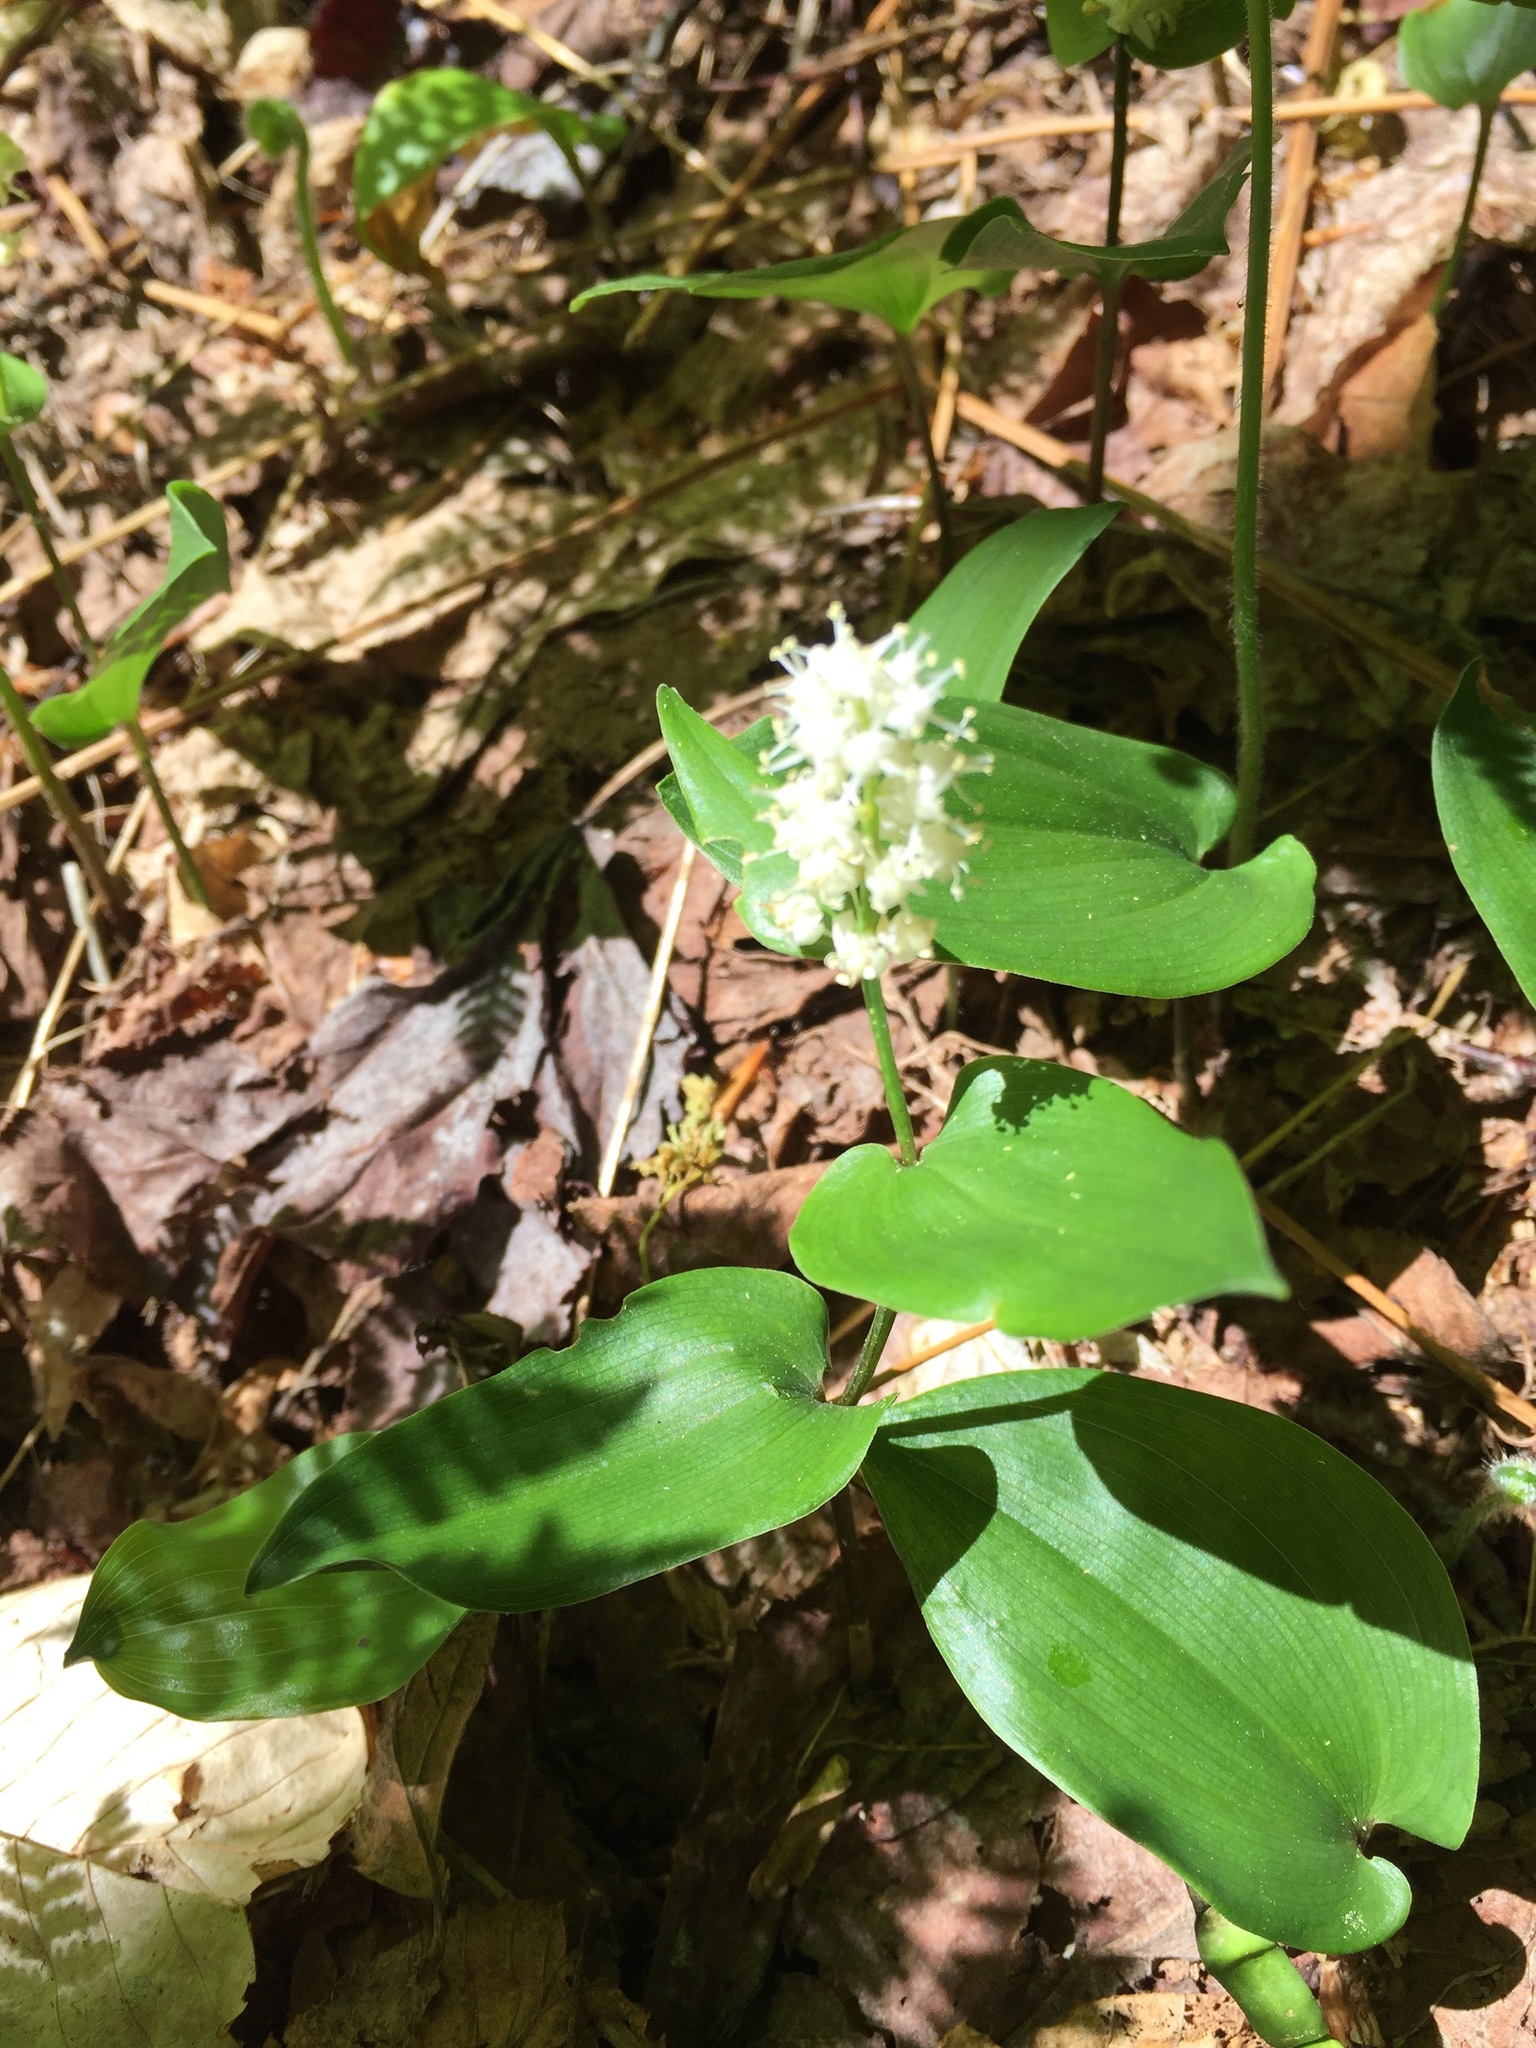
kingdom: Plantae
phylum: Tracheophyta
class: Liliopsida
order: Asparagales
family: Asparagaceae
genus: Maianthemum
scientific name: Maianthemum canadense
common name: False lily-of-the-valley
